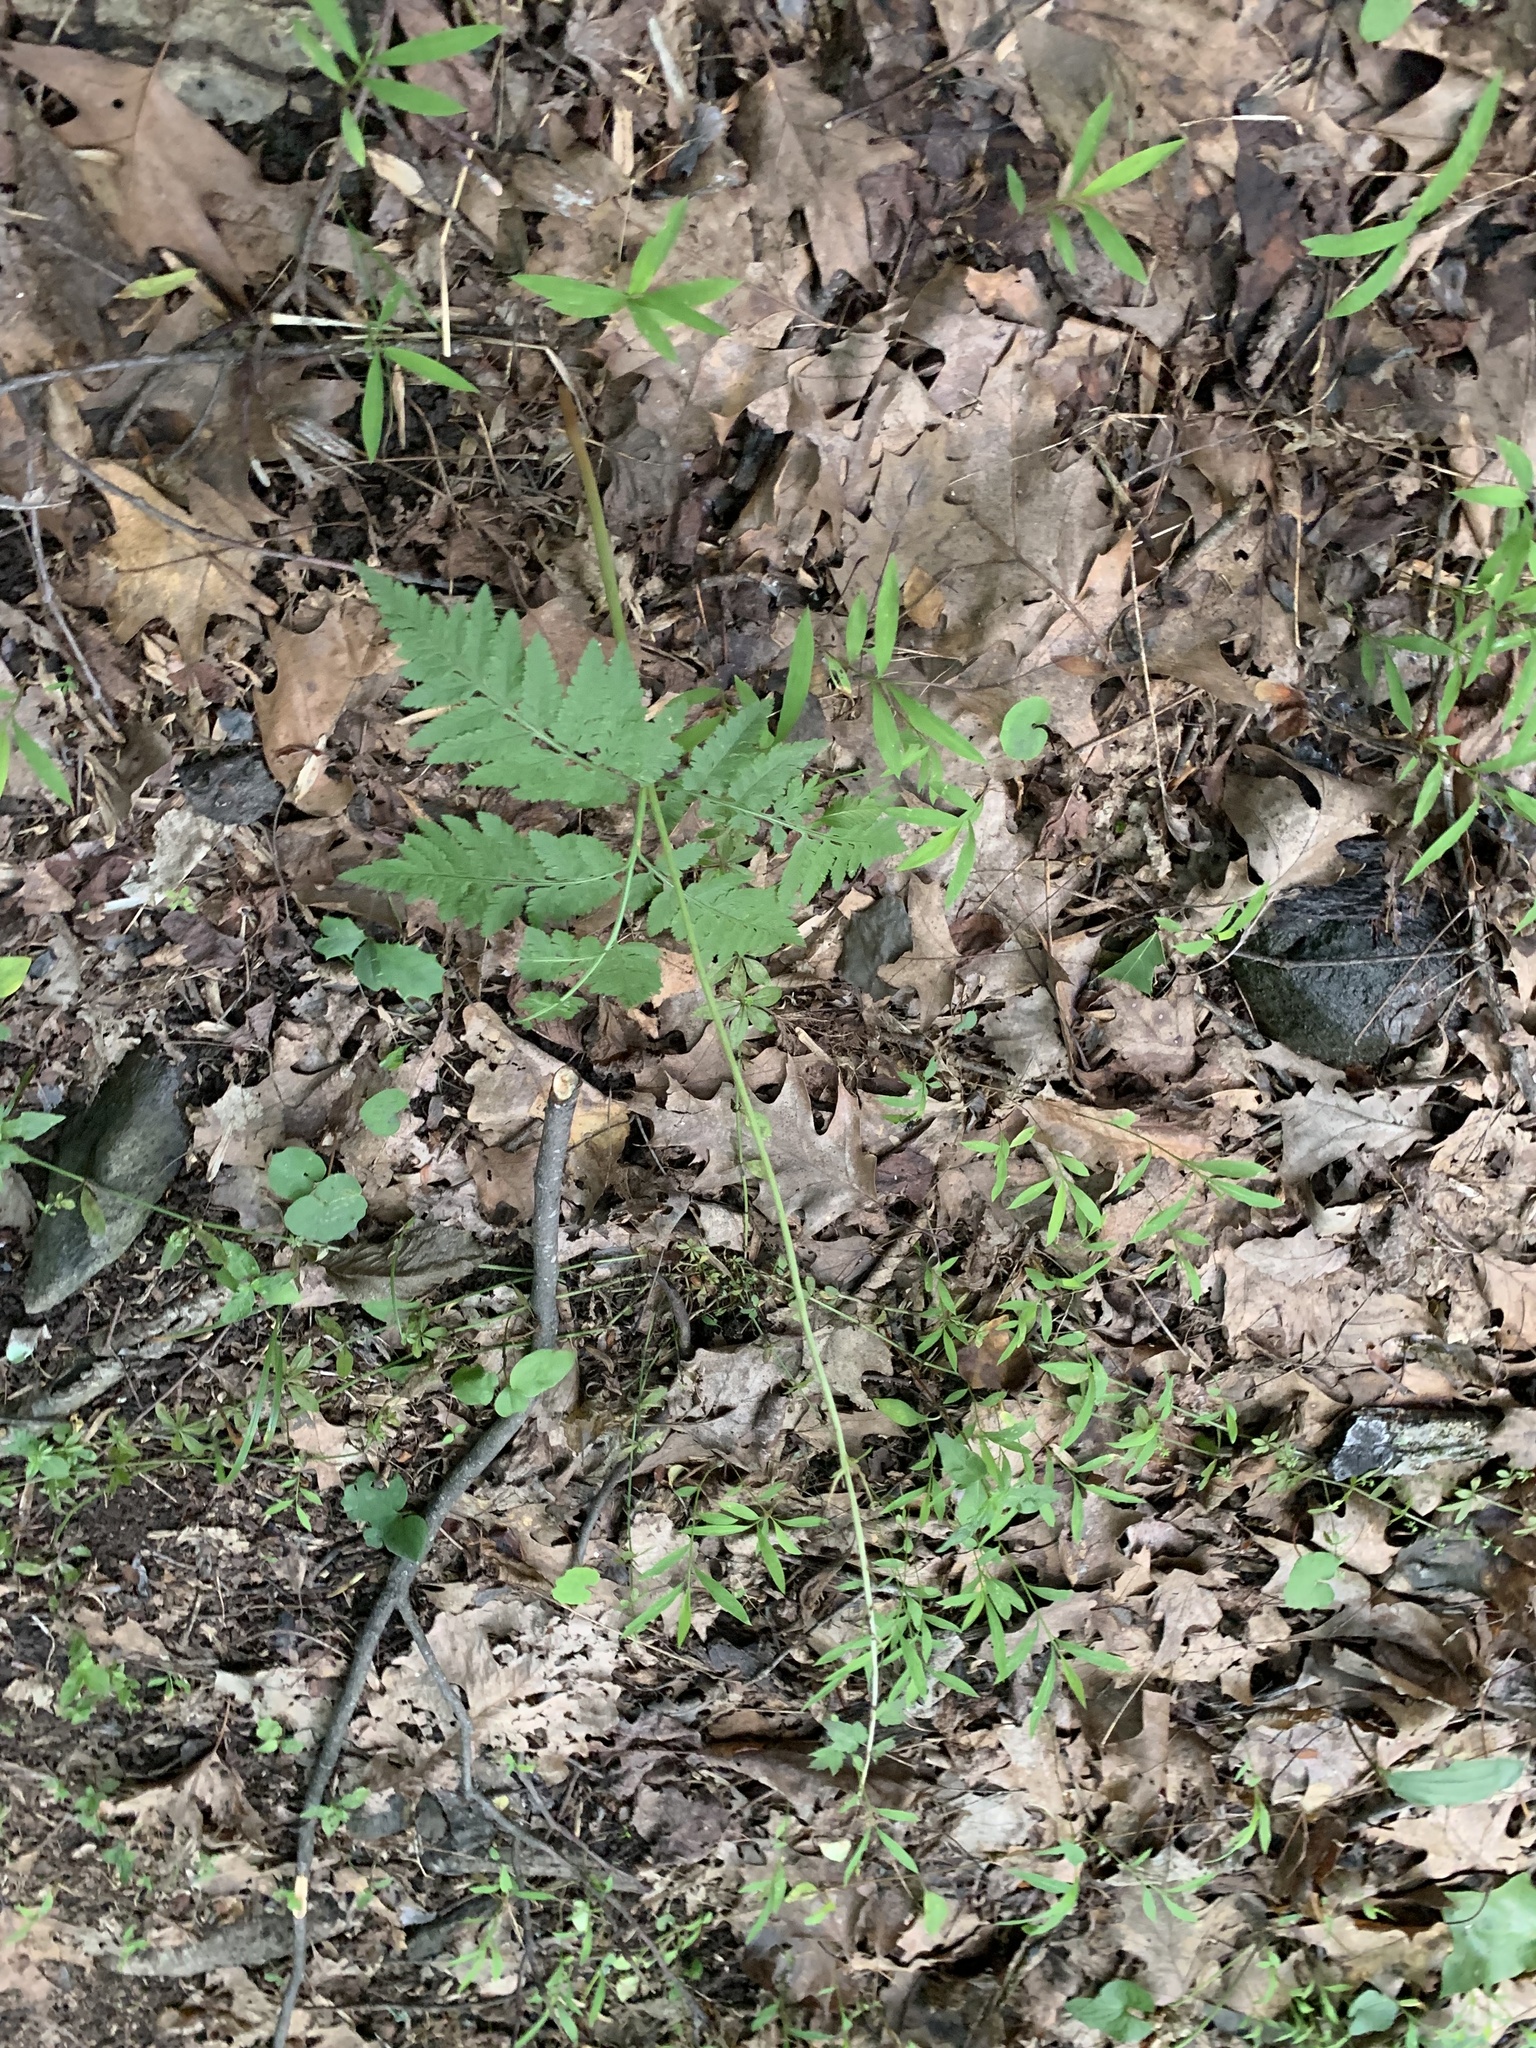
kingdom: Plantae
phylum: Tracheophyta
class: Polypodiopsida
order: Ophioglossales
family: Ophioglossaceae
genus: Botrypus
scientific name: Botrypus virginianus
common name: Common grapefern
